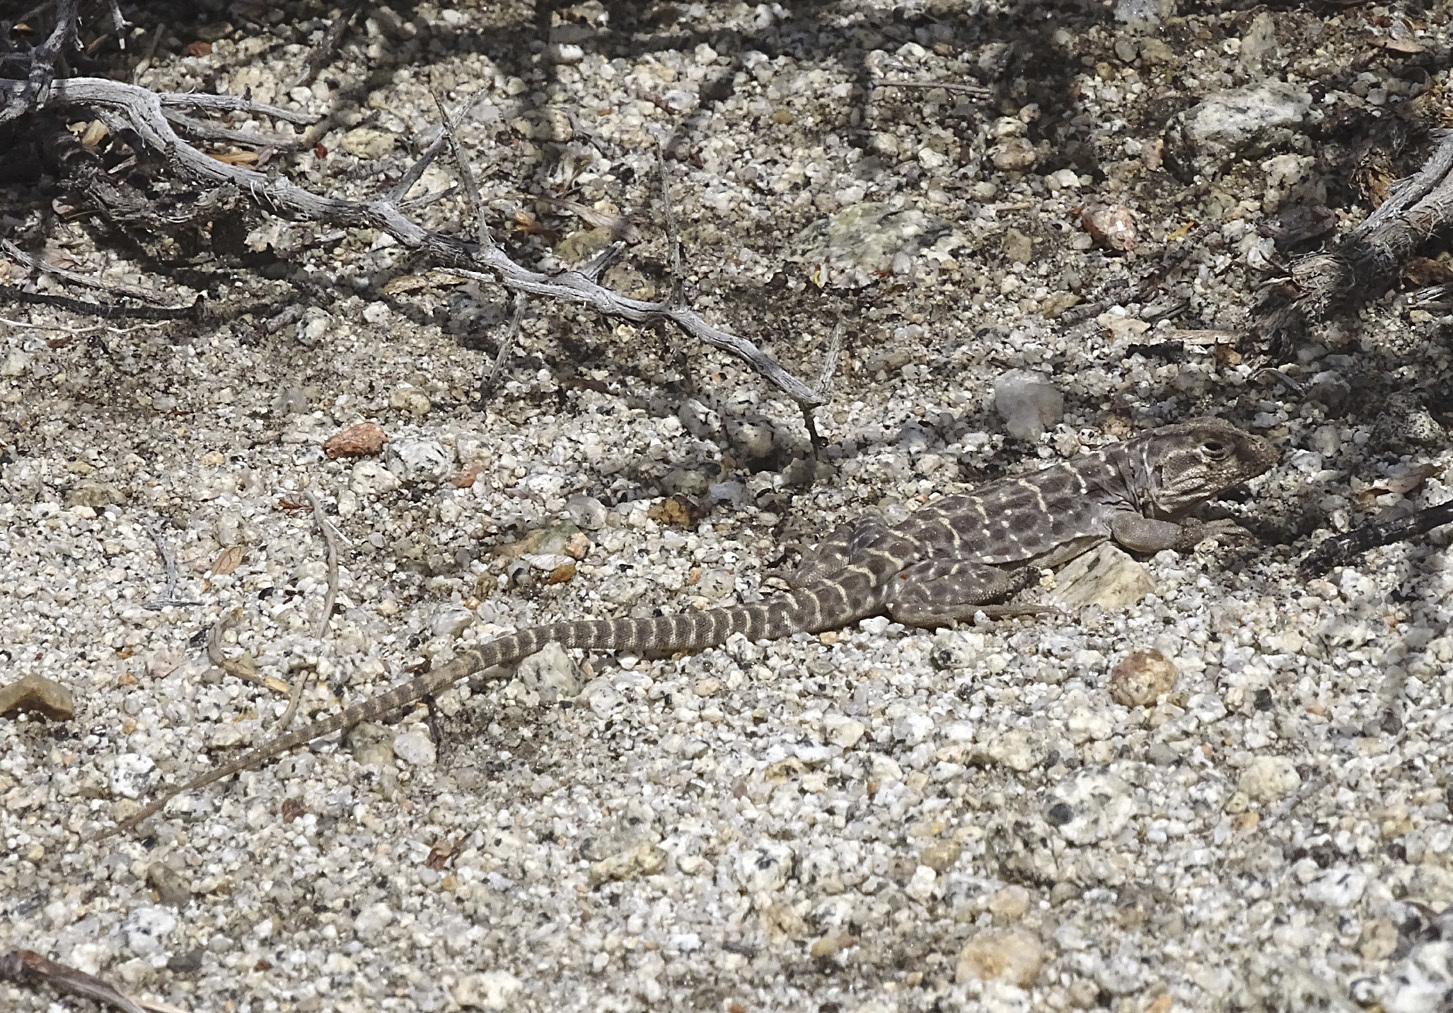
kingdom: Animalia
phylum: Chordata
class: Squamata
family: Crotaphytidae
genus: Gambelia
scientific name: Gambelia wislizenii
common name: Longnose leopard lizard
